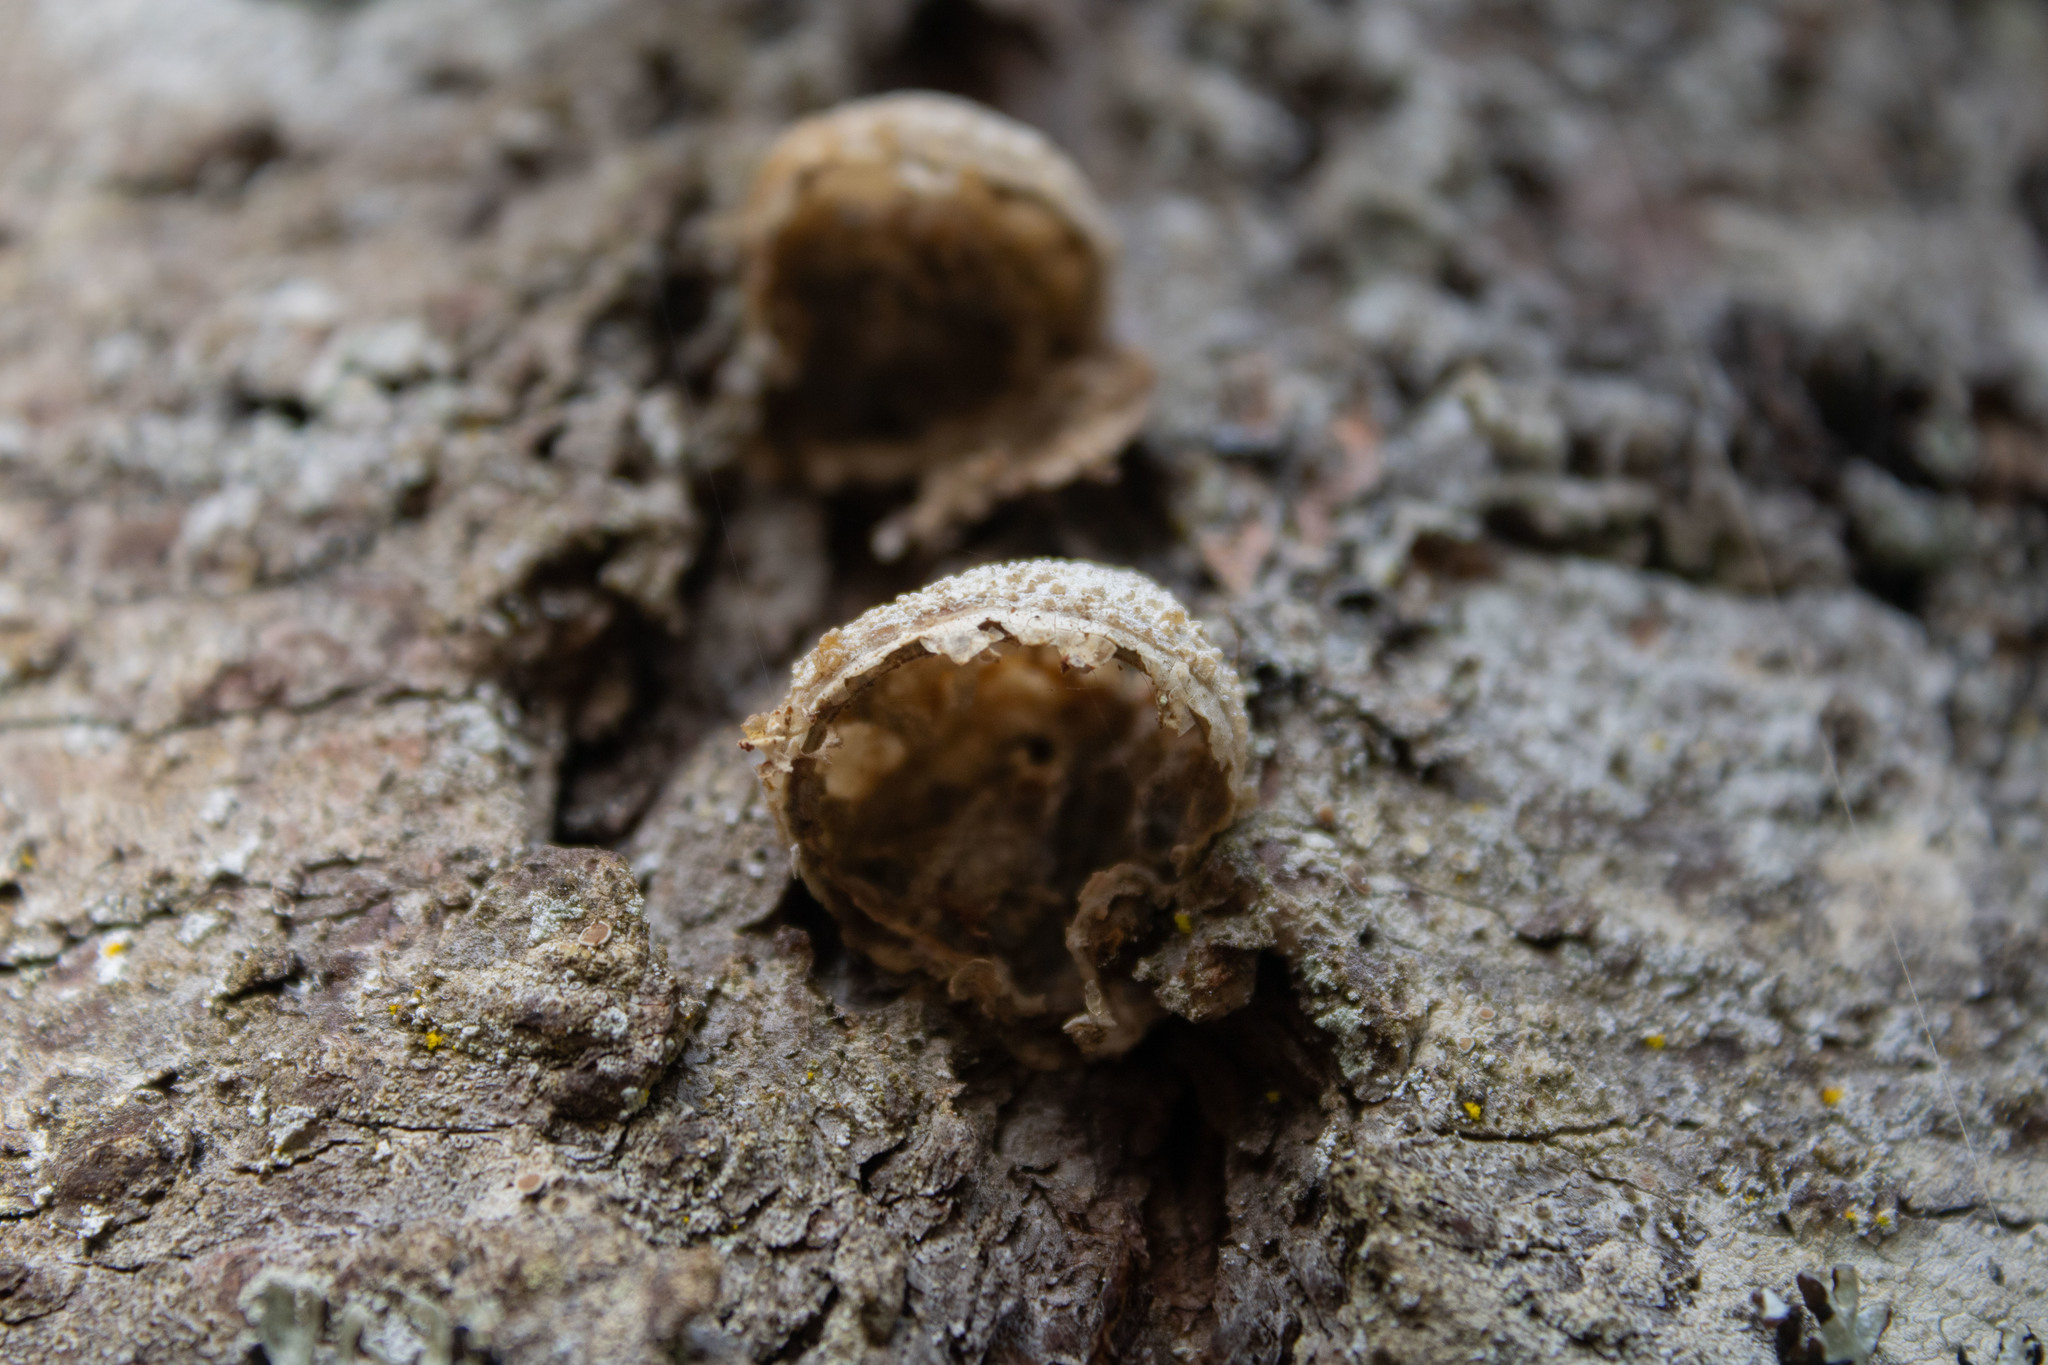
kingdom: Fungi
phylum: Basidiomycota
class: Agaricomycetes
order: Polyporales
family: Polyporaceae
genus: Cryptoporus
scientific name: Cryptoporus volvatus
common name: Veiled polypore
